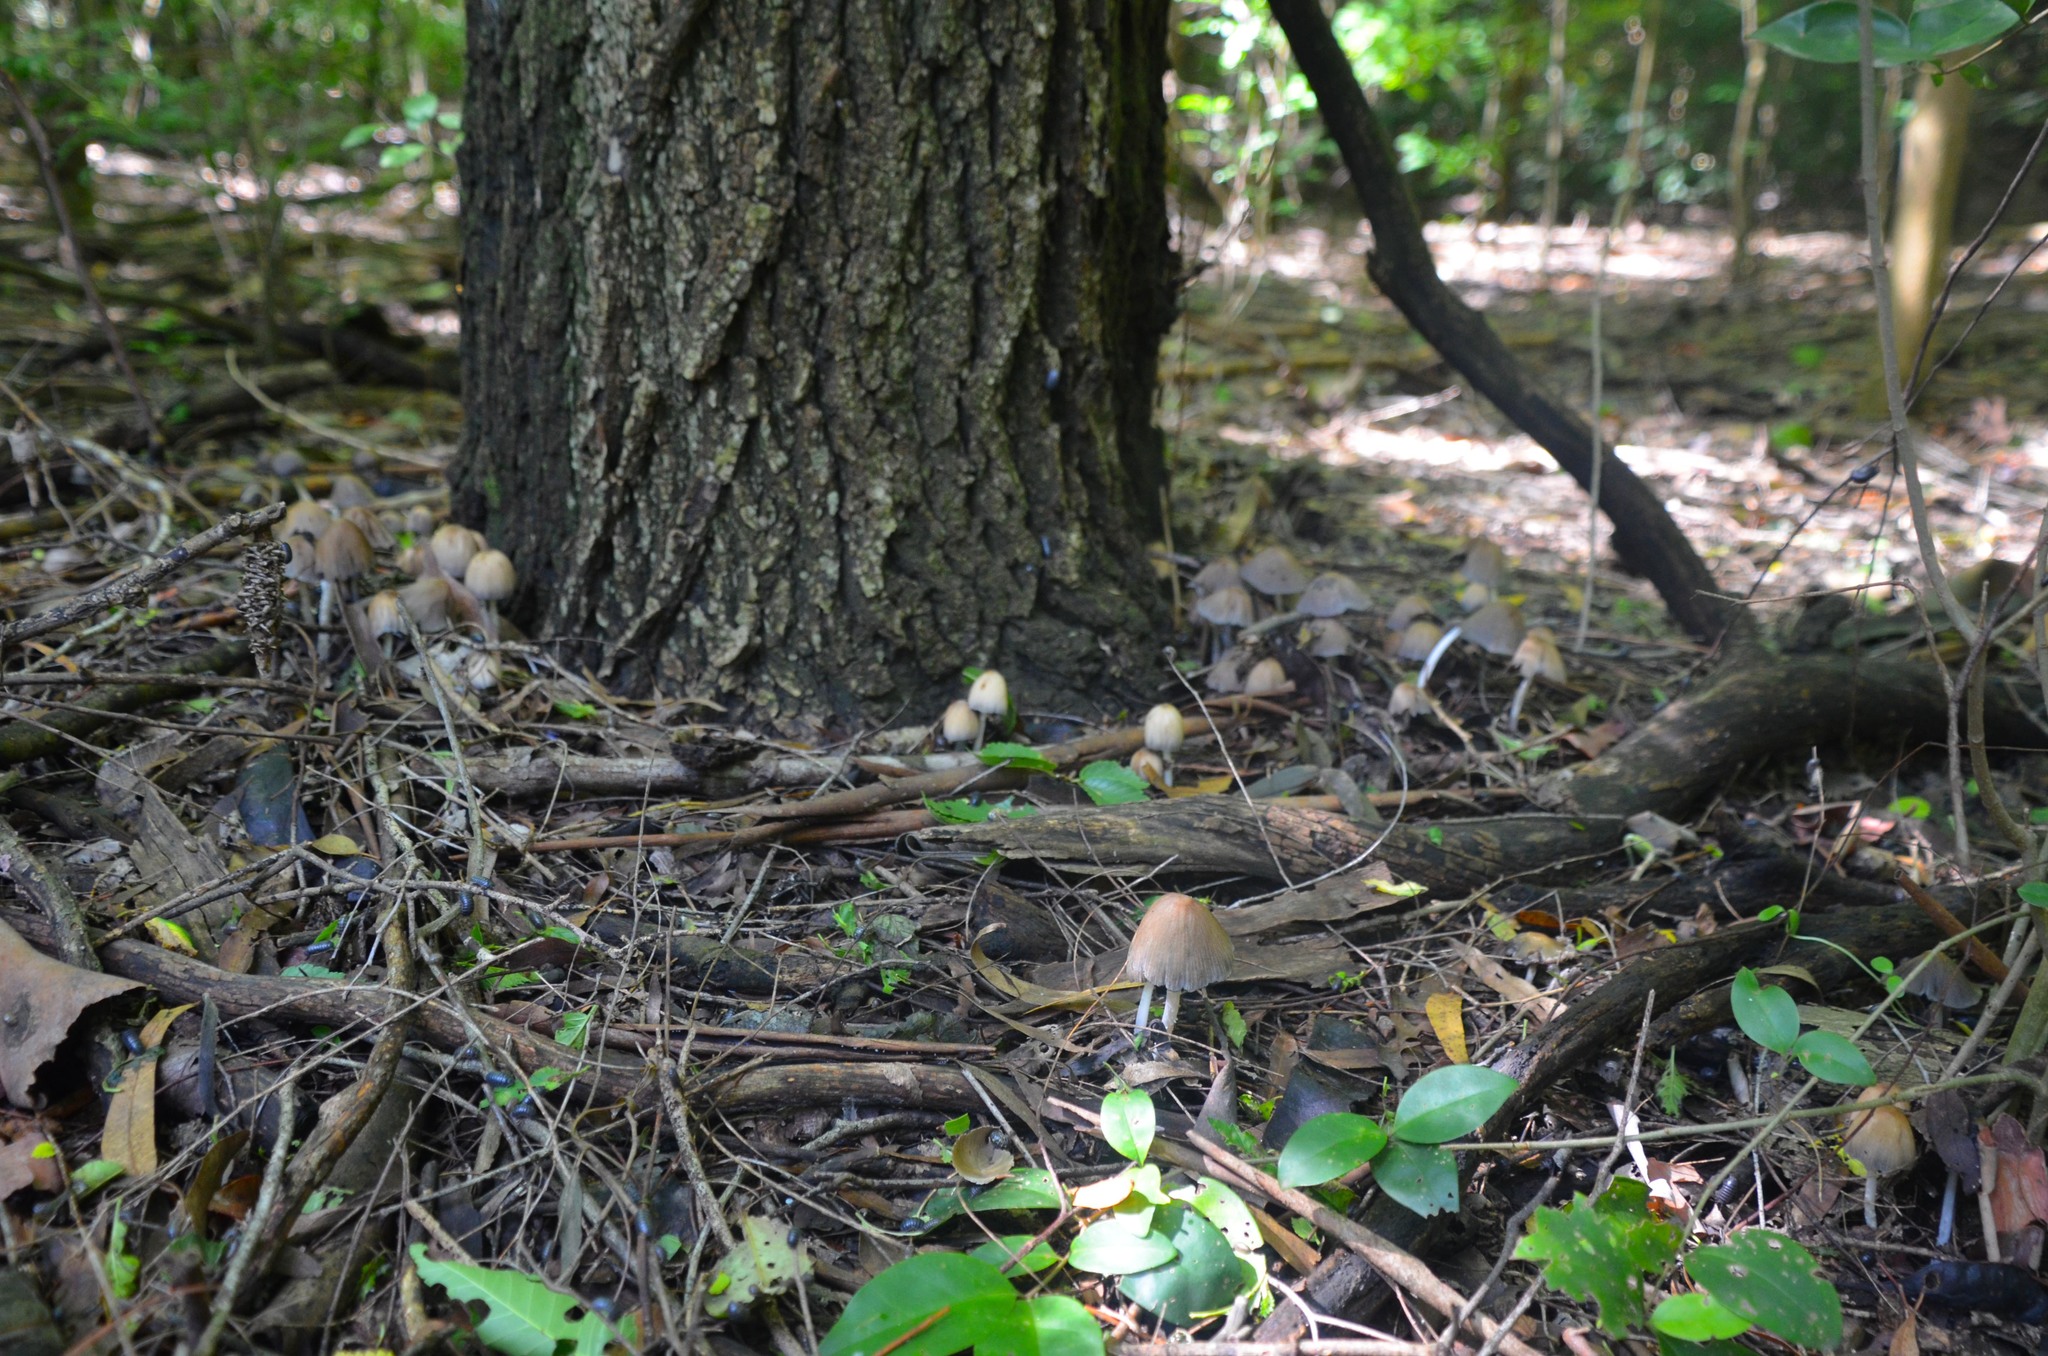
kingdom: Fungi
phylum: Basidiomycota
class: Agaricomycetes
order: Agaricales
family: Psathyrellaceae
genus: Coprinellus
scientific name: Coprinellus micaceus
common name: Glistening ink-cap
